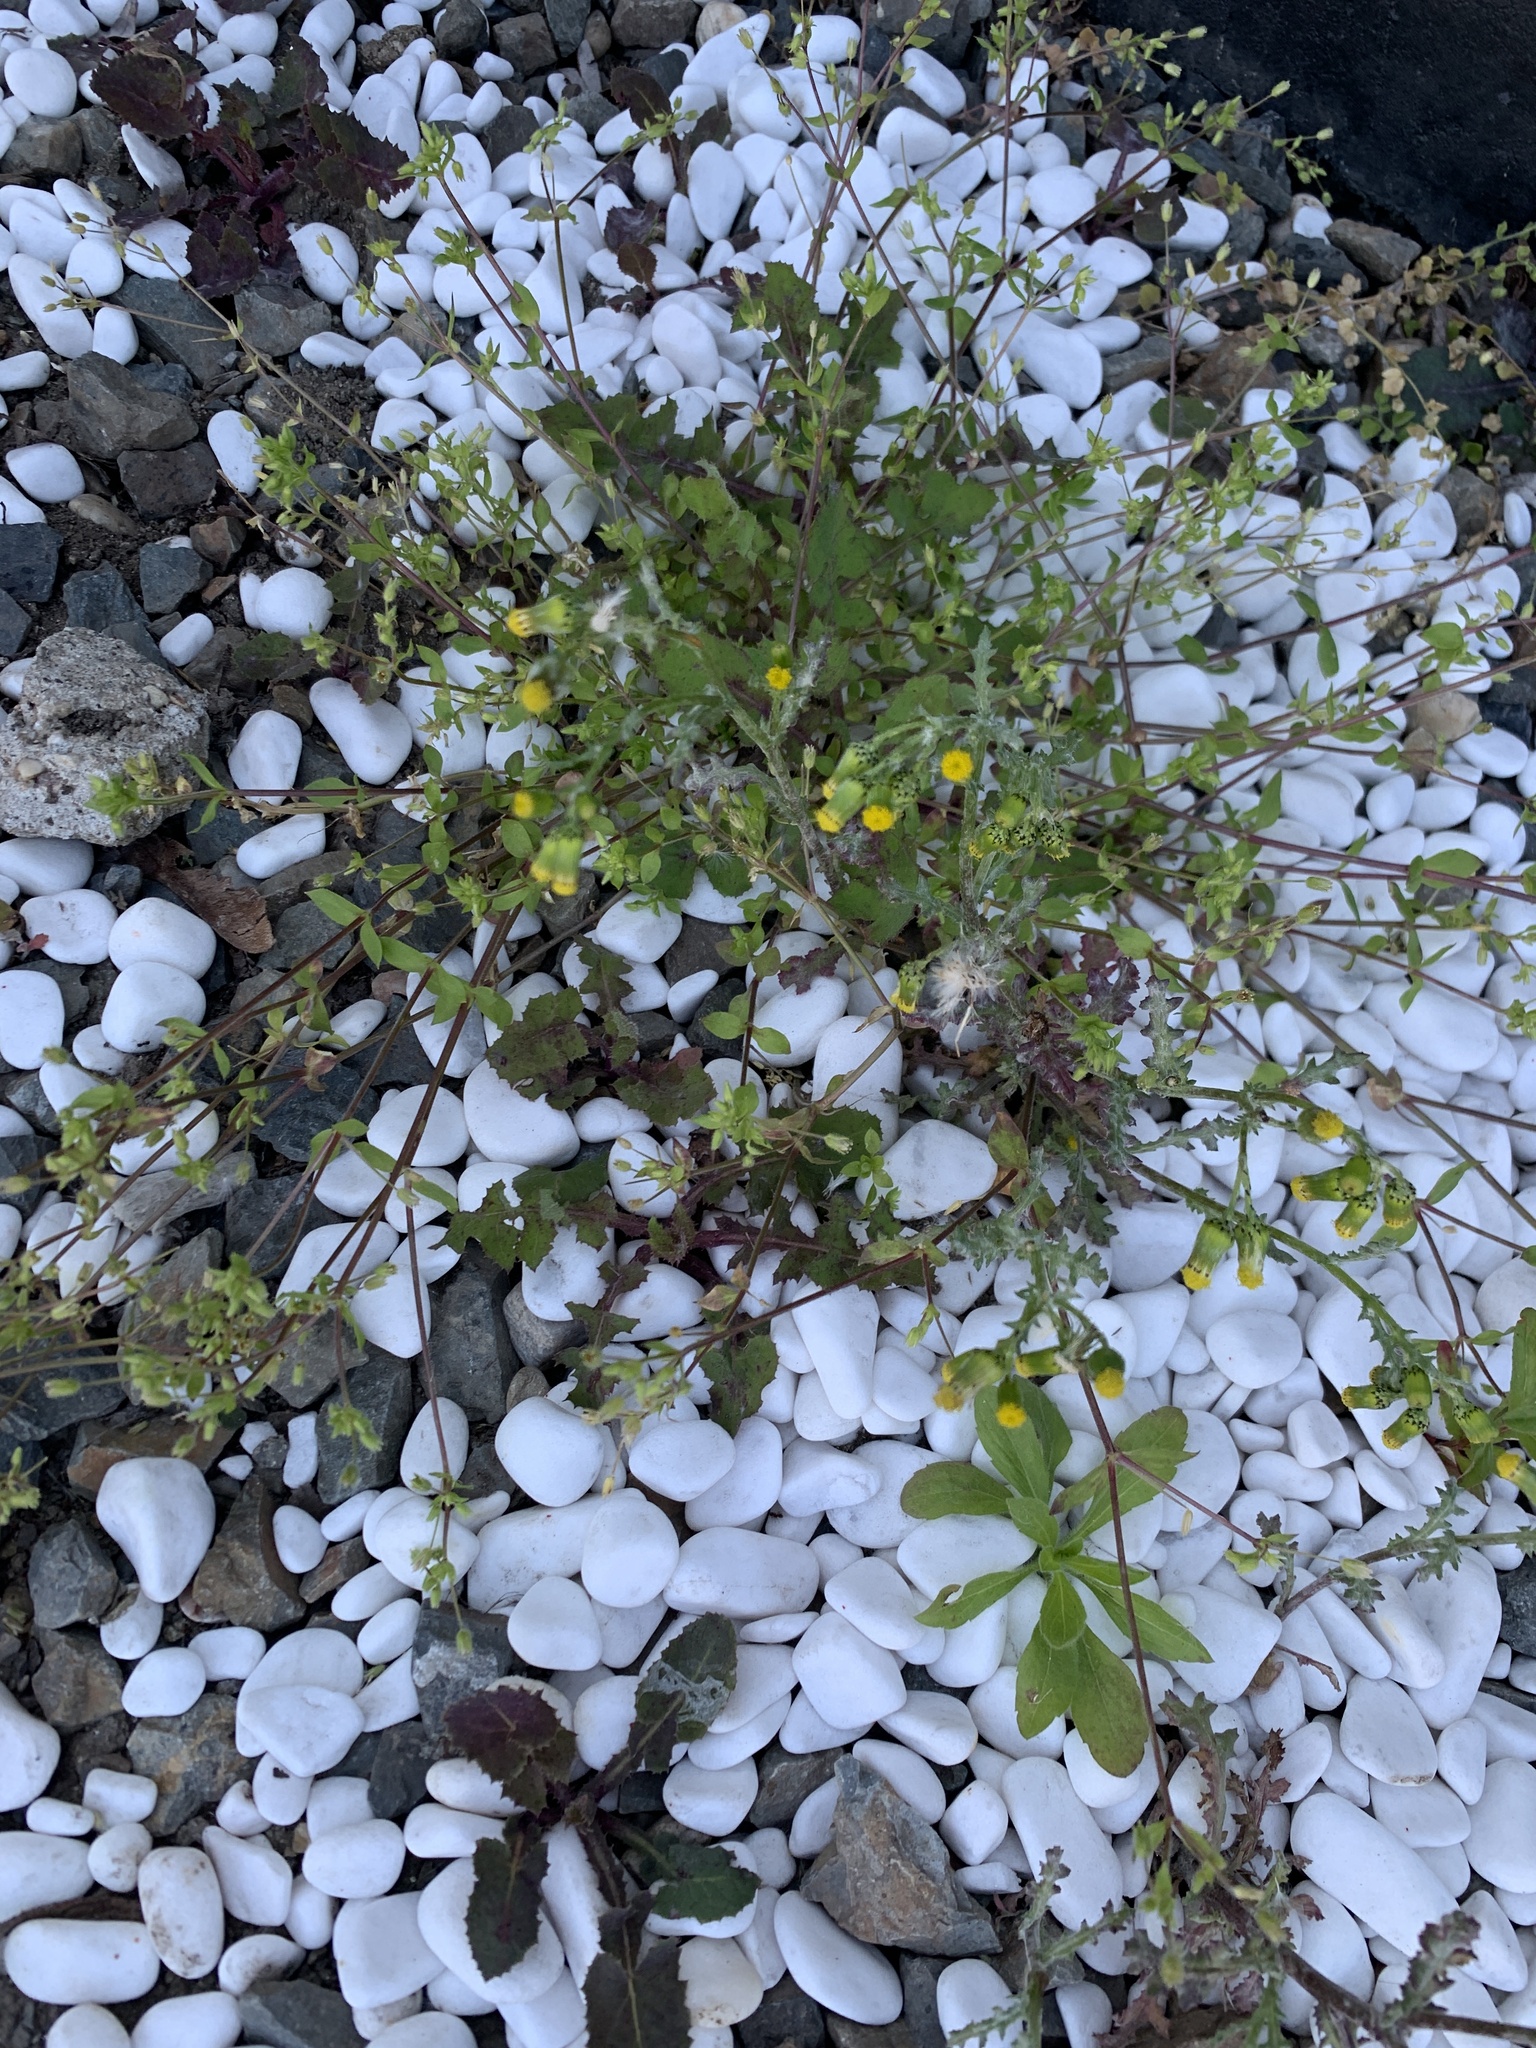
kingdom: Plantae
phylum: Tracheophyta
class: Magnoliopsida
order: Asterales
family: Asteraceae
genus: Senecio
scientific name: Senecio vulgaris
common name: Old-man-in-the-spring
